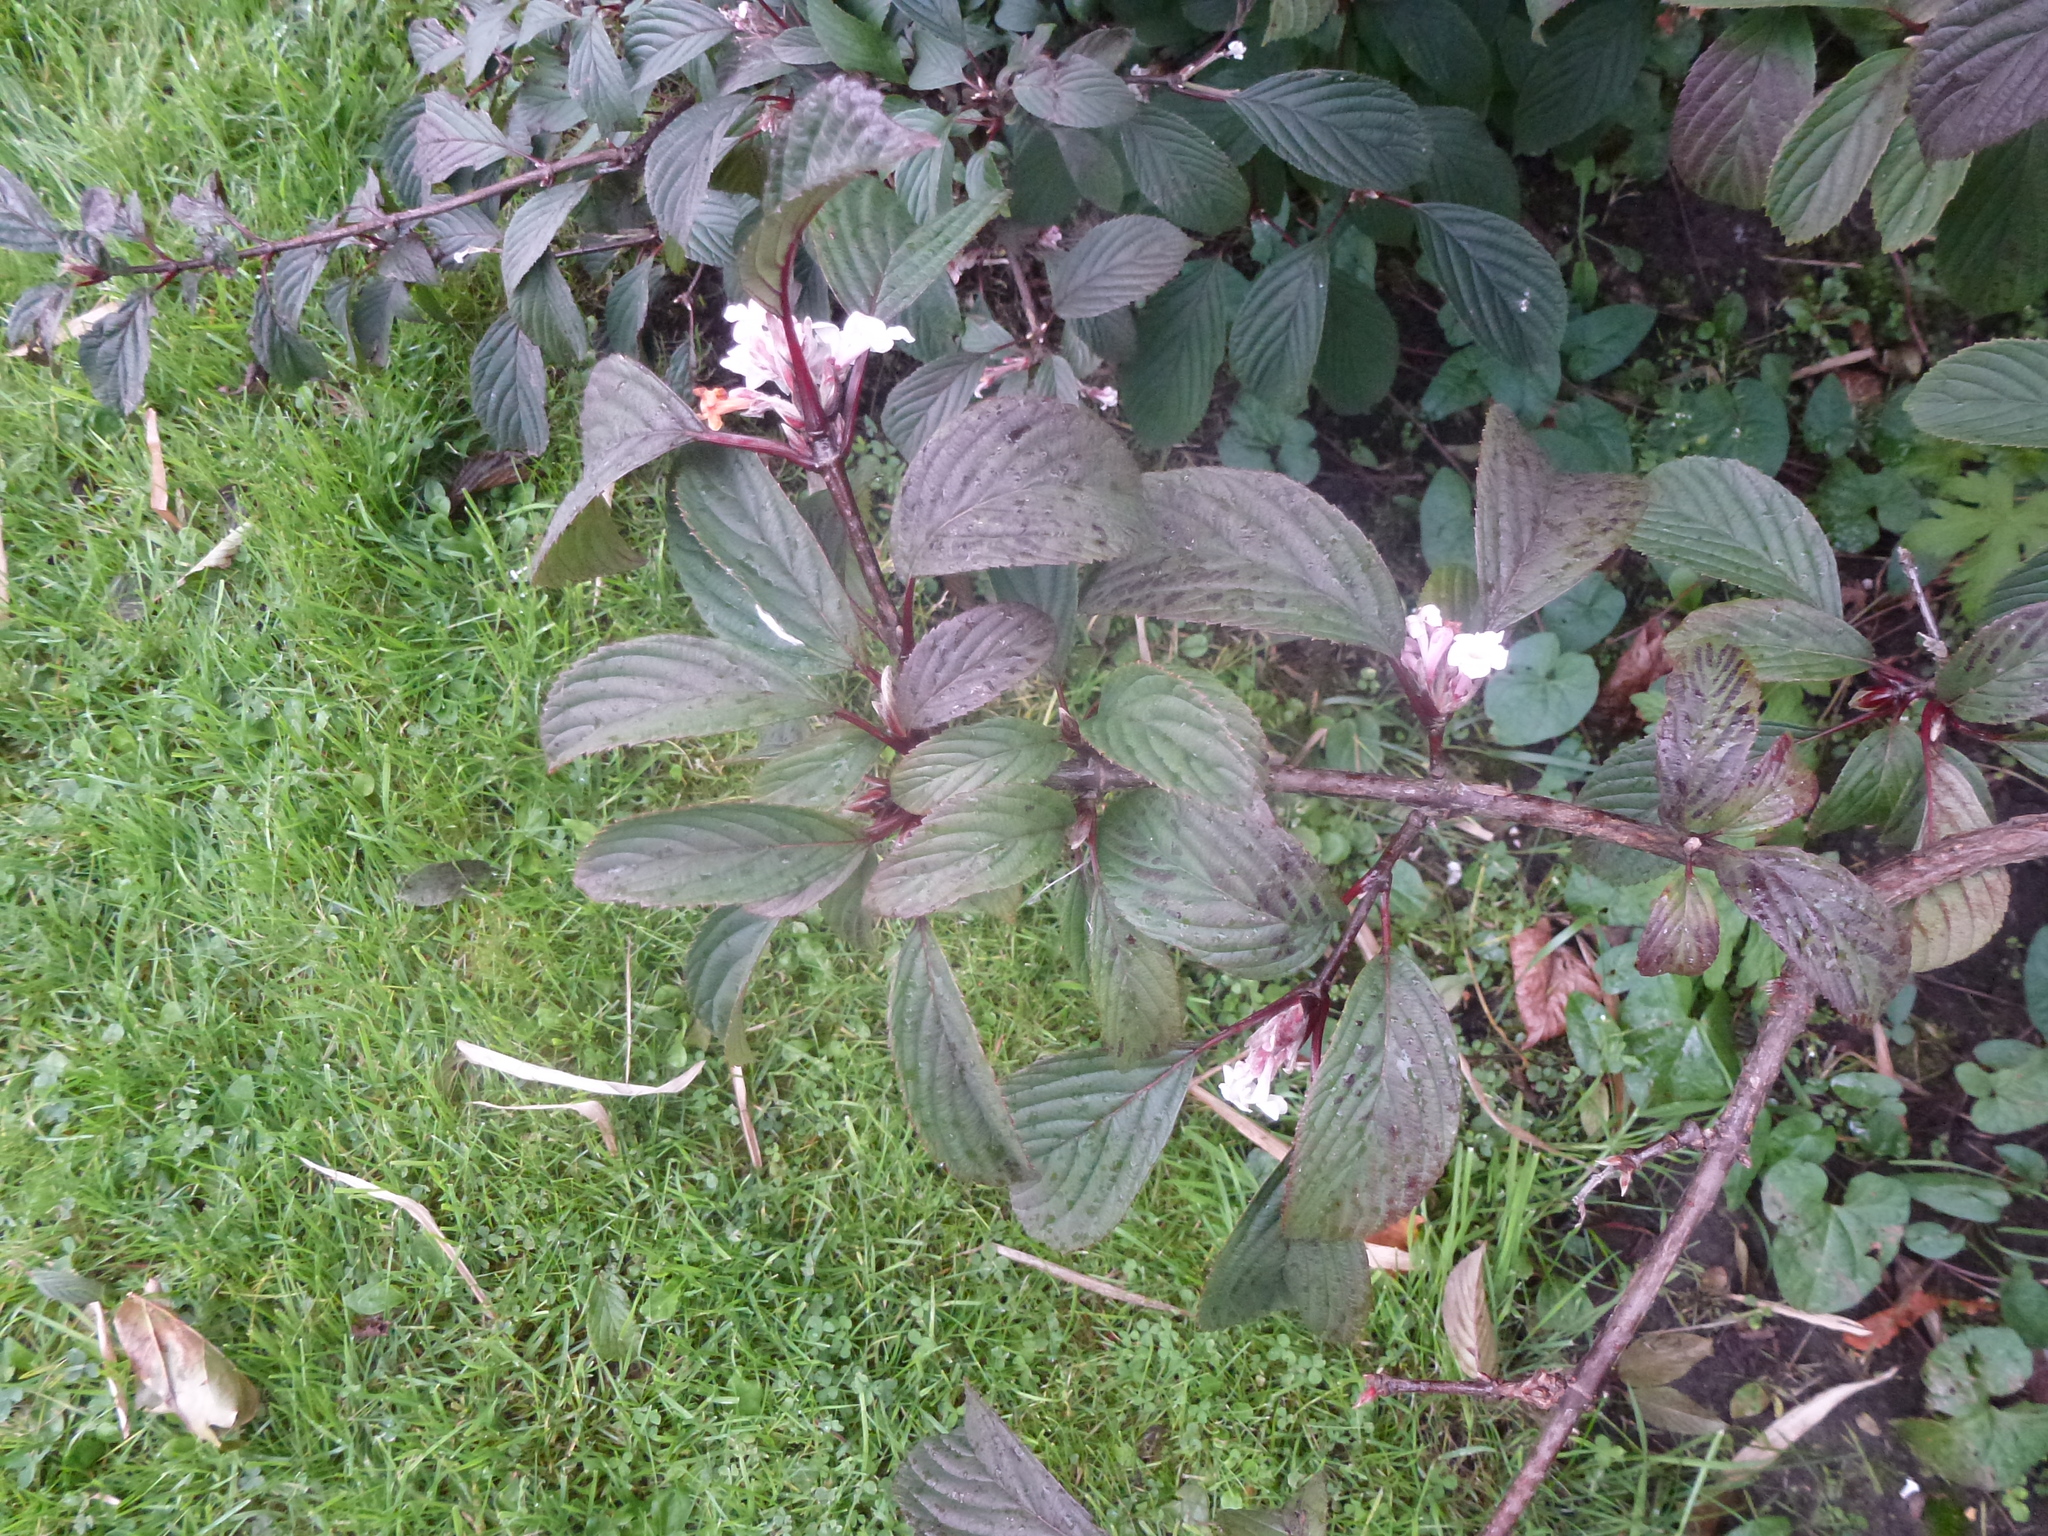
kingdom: Plantae
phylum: Tracheophyta
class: Magnoliopsida
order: Dipsacales
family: Viburnaceae
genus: Viburnum
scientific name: Viburnum bodnantense
